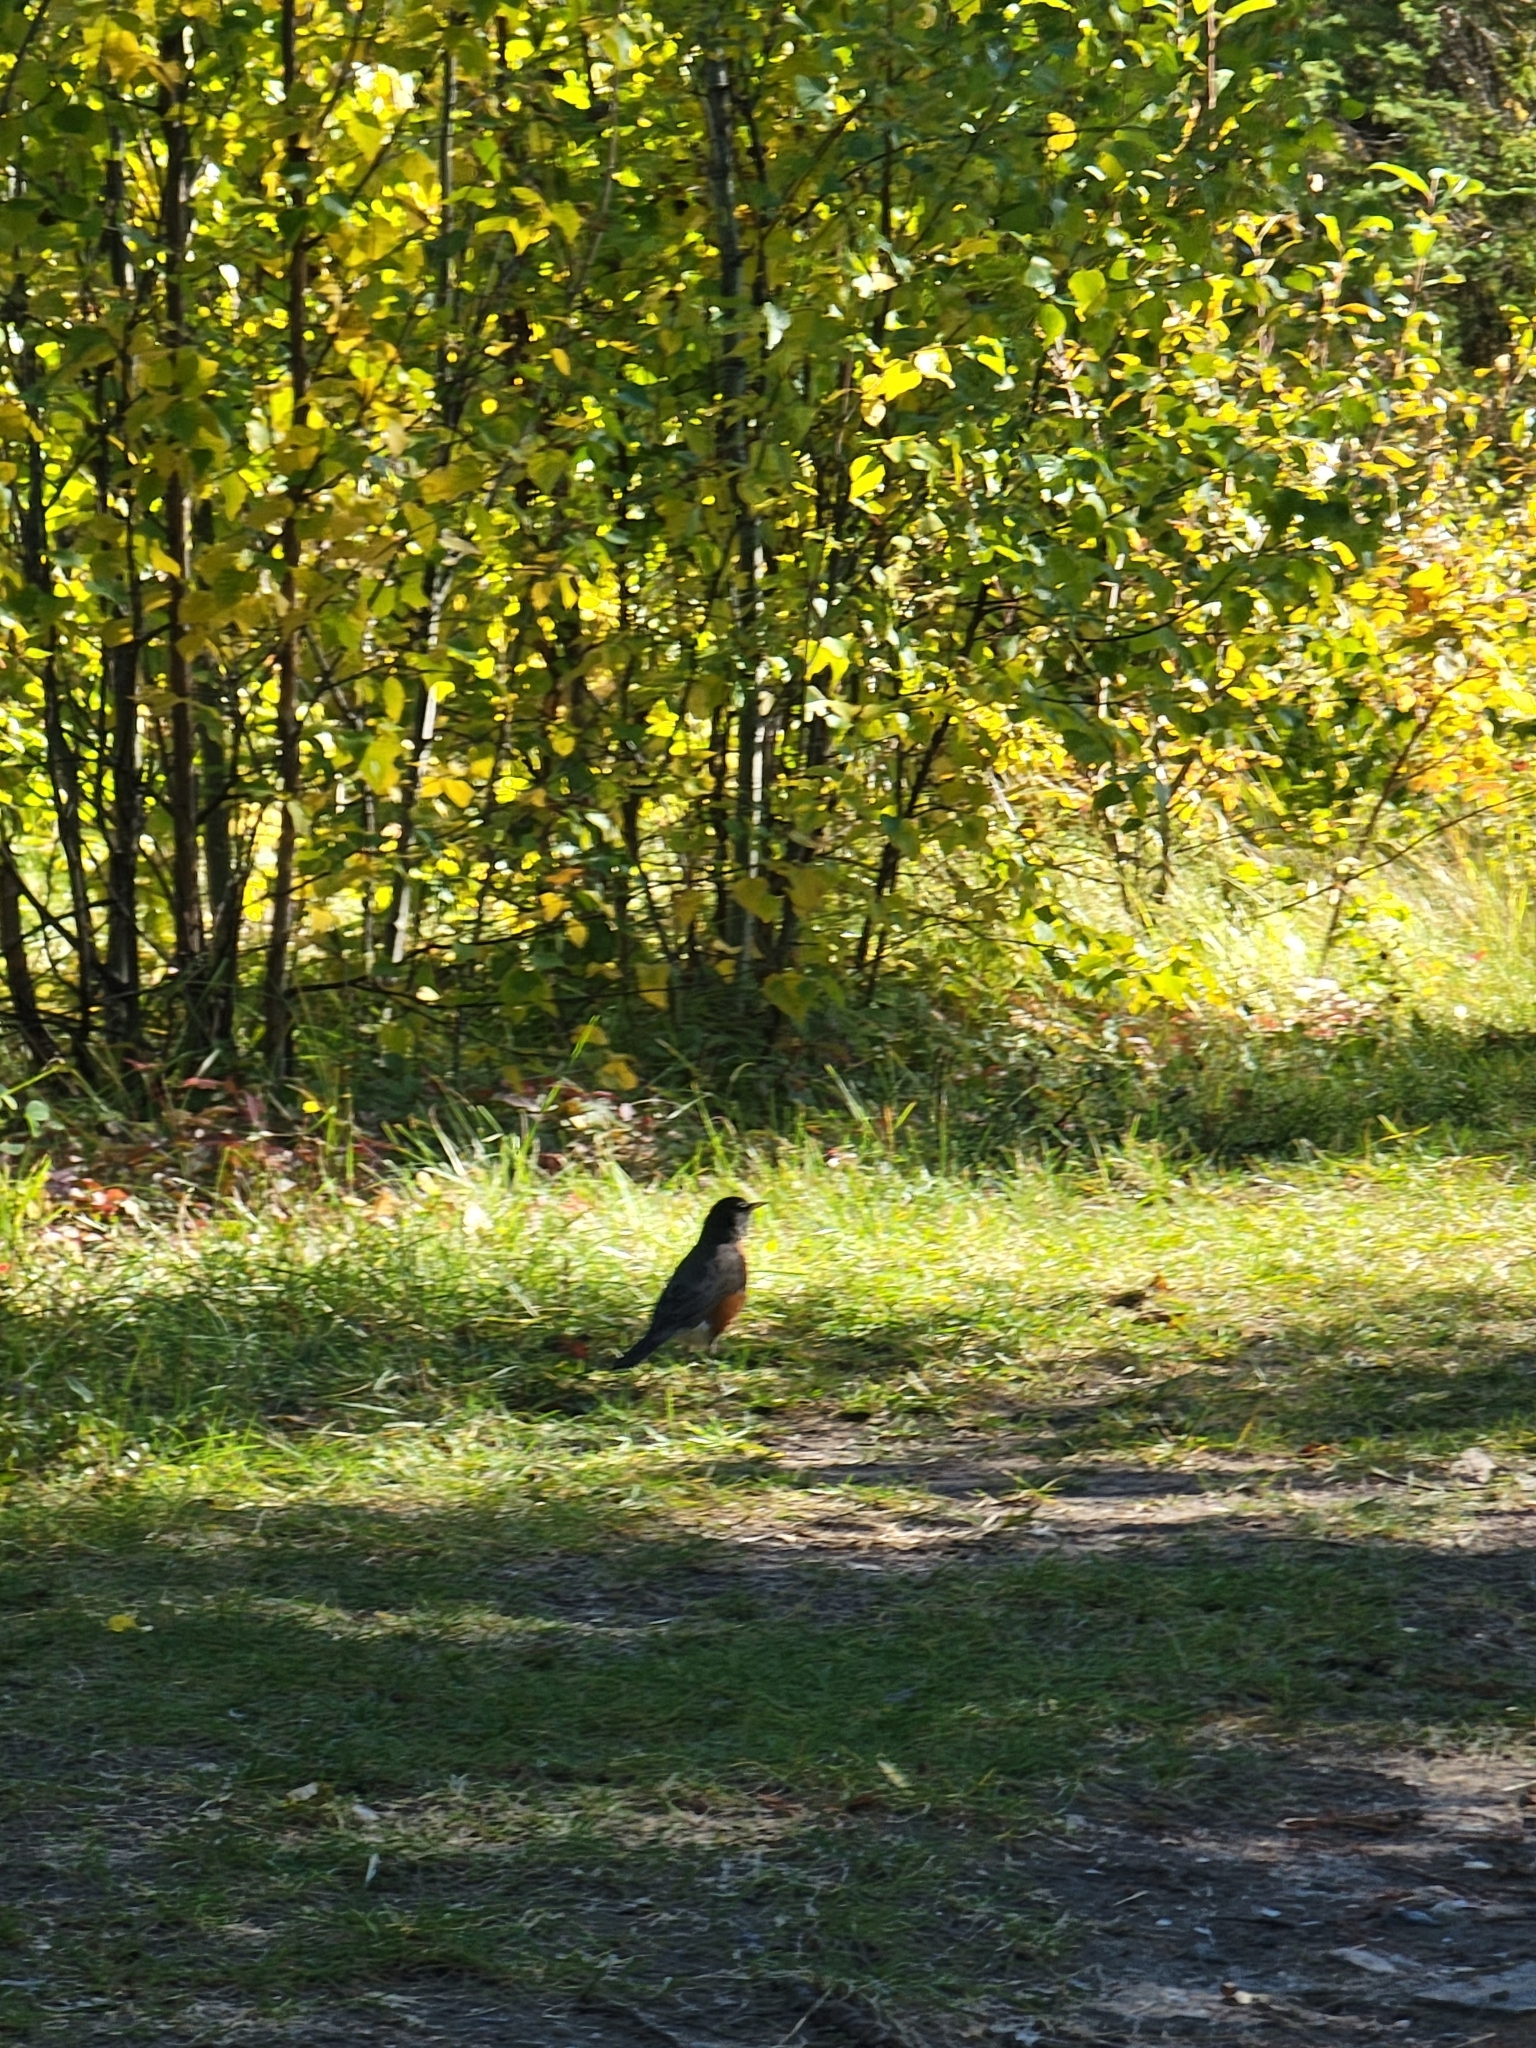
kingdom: Animalia
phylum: Chordata
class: Aves
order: Passeriformes
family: Turdidae
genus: Turdus
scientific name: Turdus migratorius
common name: American robin
